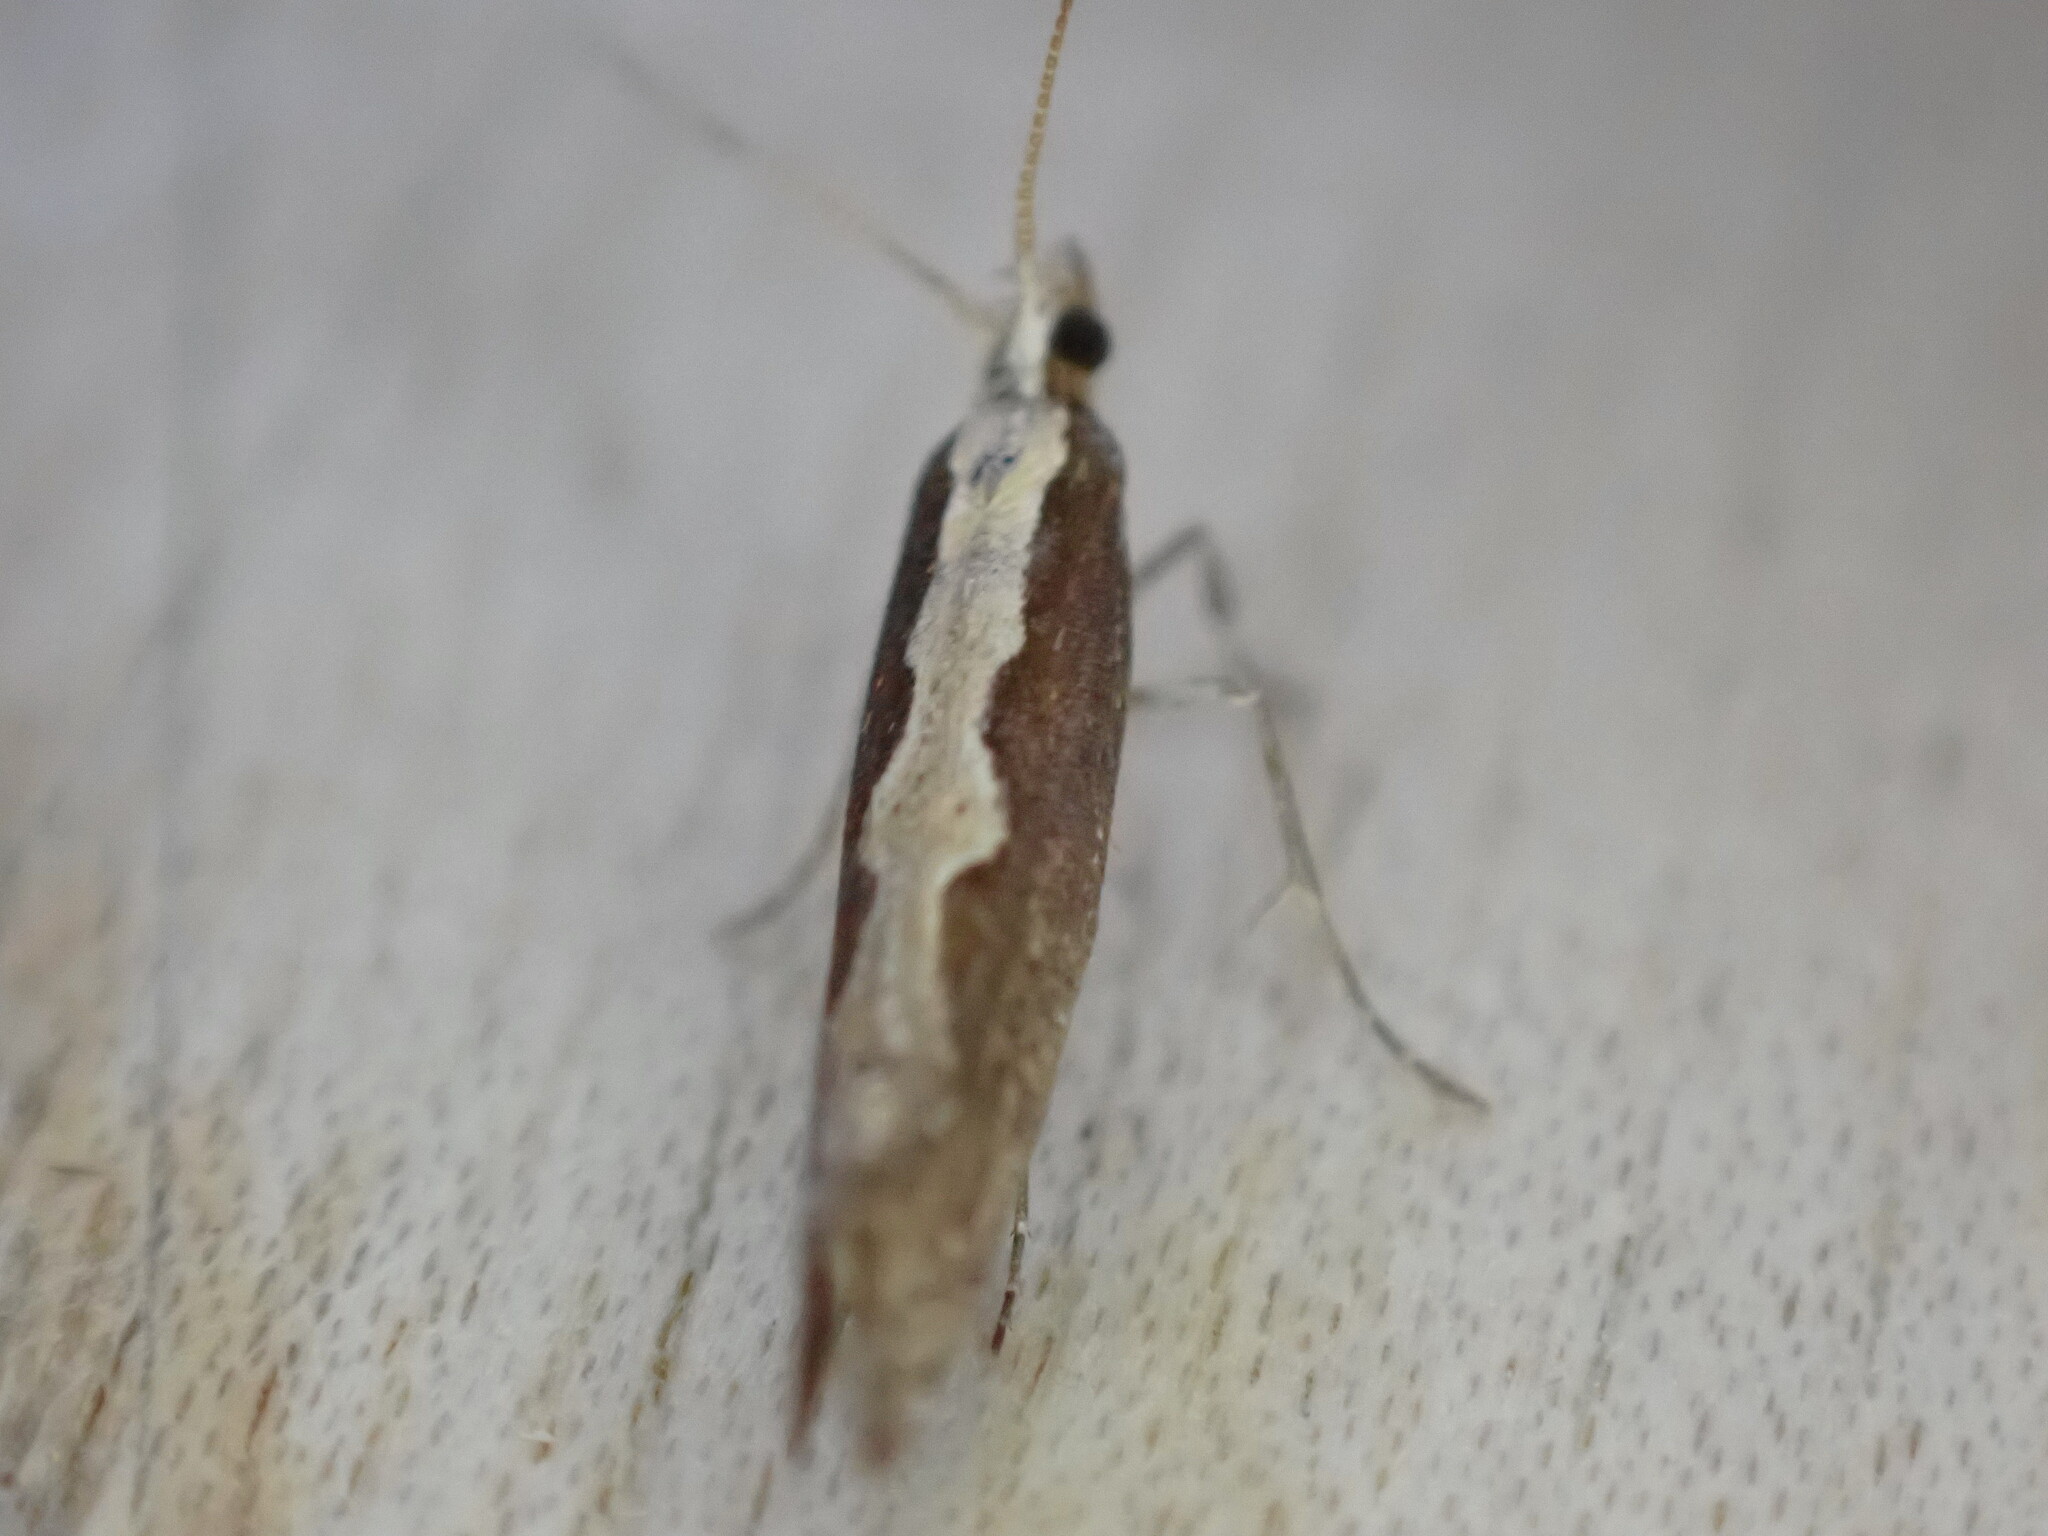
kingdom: Animalia
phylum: Arthropoda
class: Insecta
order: Lepidoptera
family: Plutellidae
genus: Plutella
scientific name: Plutella xylostella
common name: Diamond-back moth
